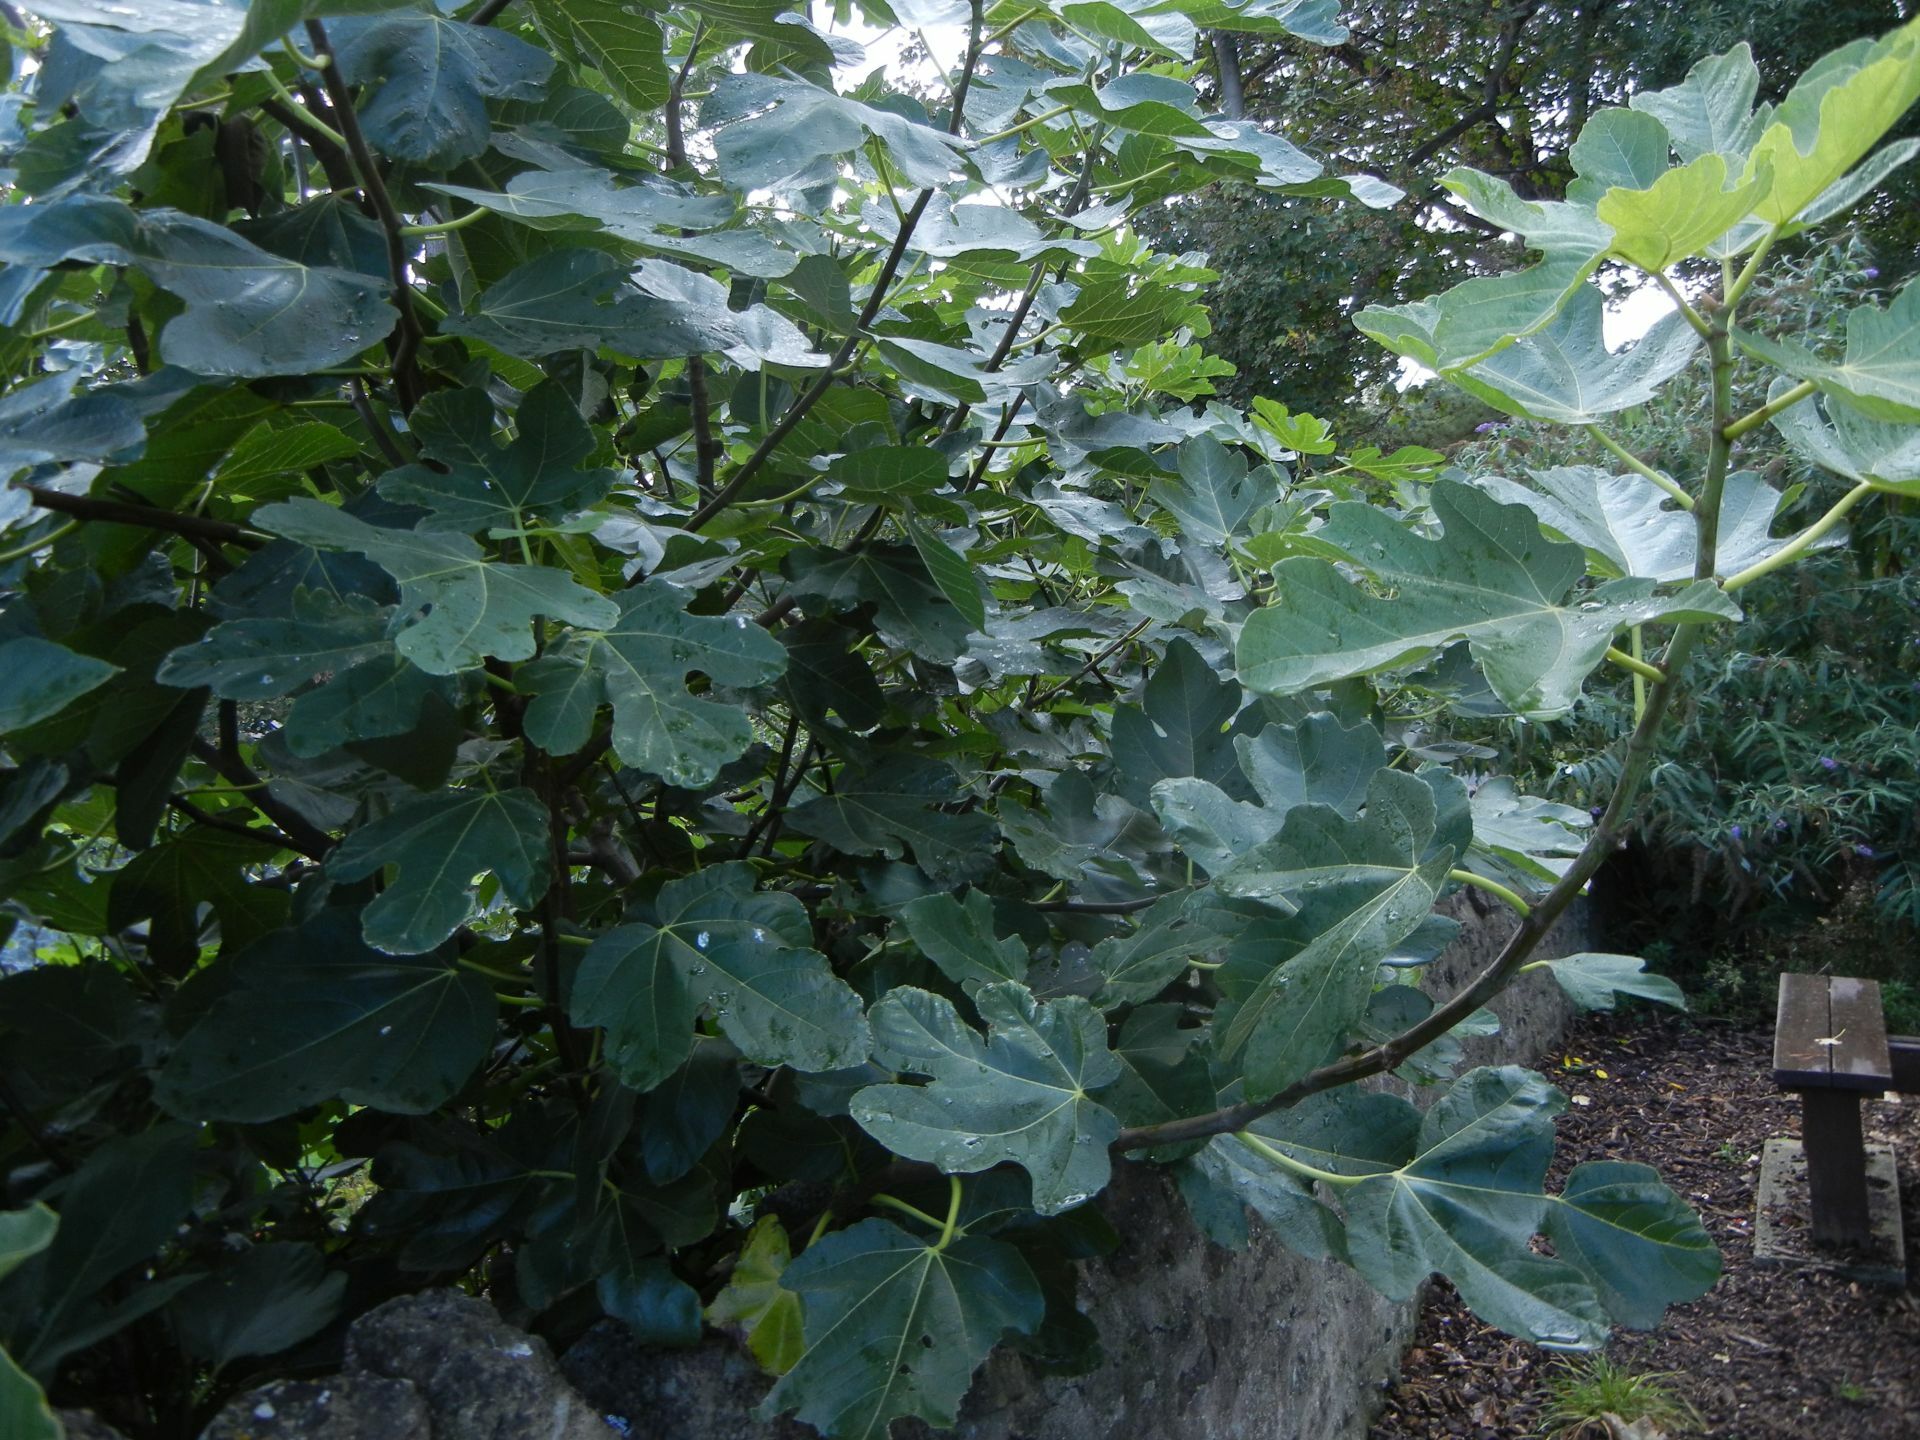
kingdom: Plantae
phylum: Tracheophyta
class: Magnoliopsida
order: Rosales
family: Moraceae
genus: Ficus
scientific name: Ficus carica
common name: Fig
